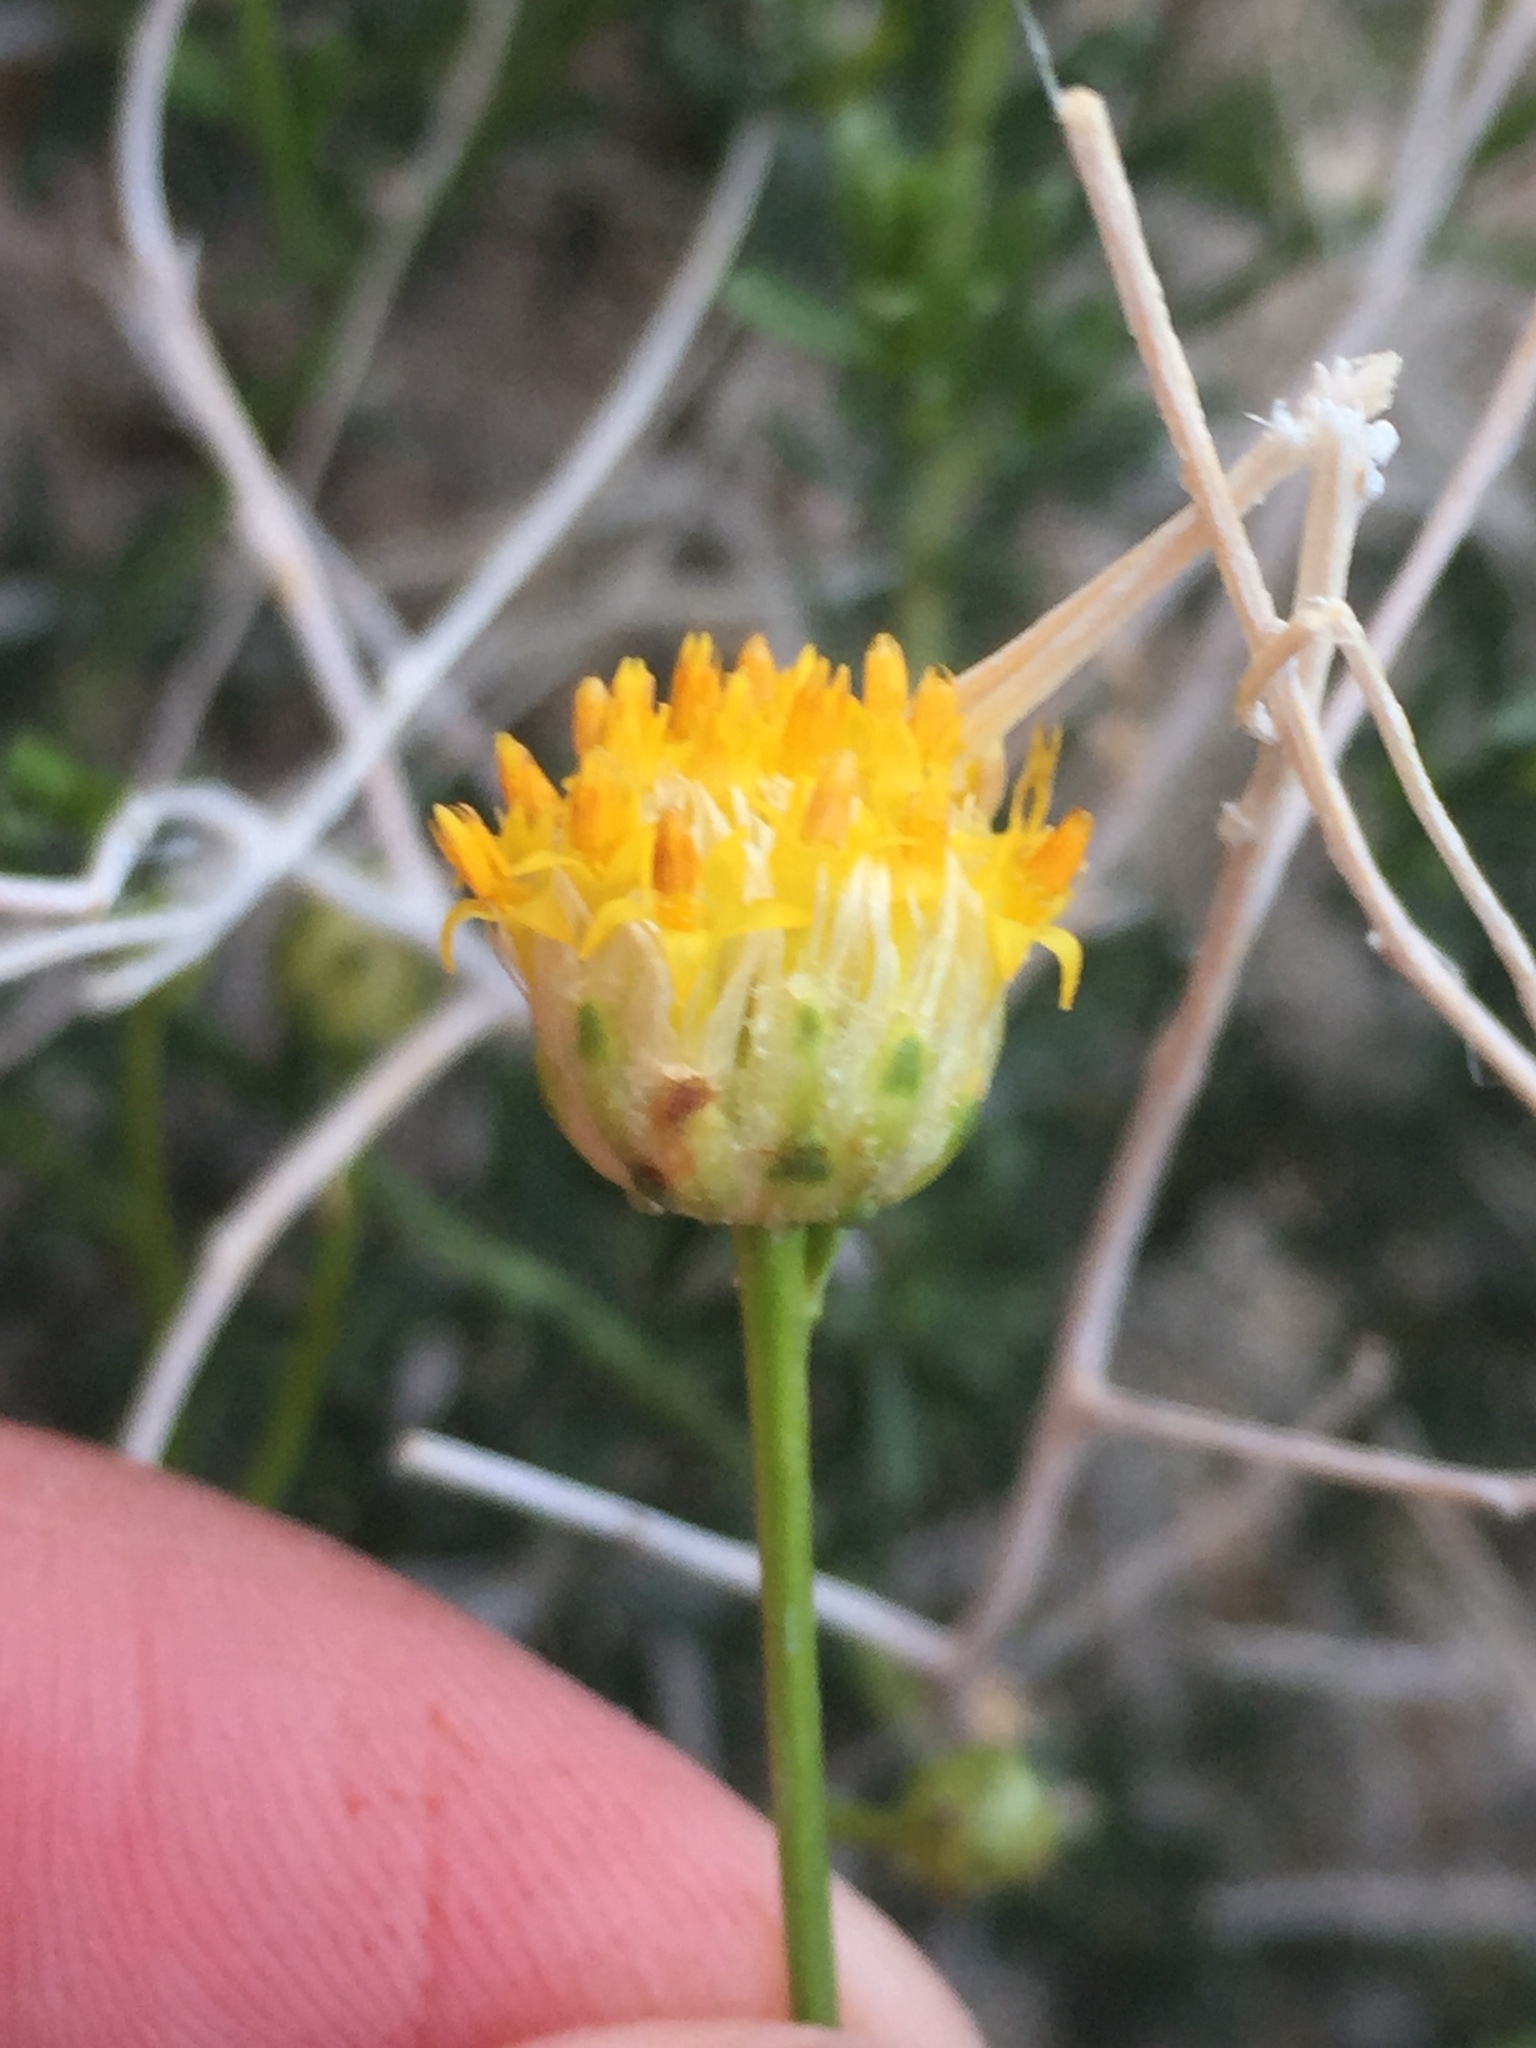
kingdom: Plantae
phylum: Tracheophyta
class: Magnoliopsida
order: Asterales
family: Asteraceae
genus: Acamptopappus
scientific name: Acamptopappus sphaerocephalus
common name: Goldenhead
